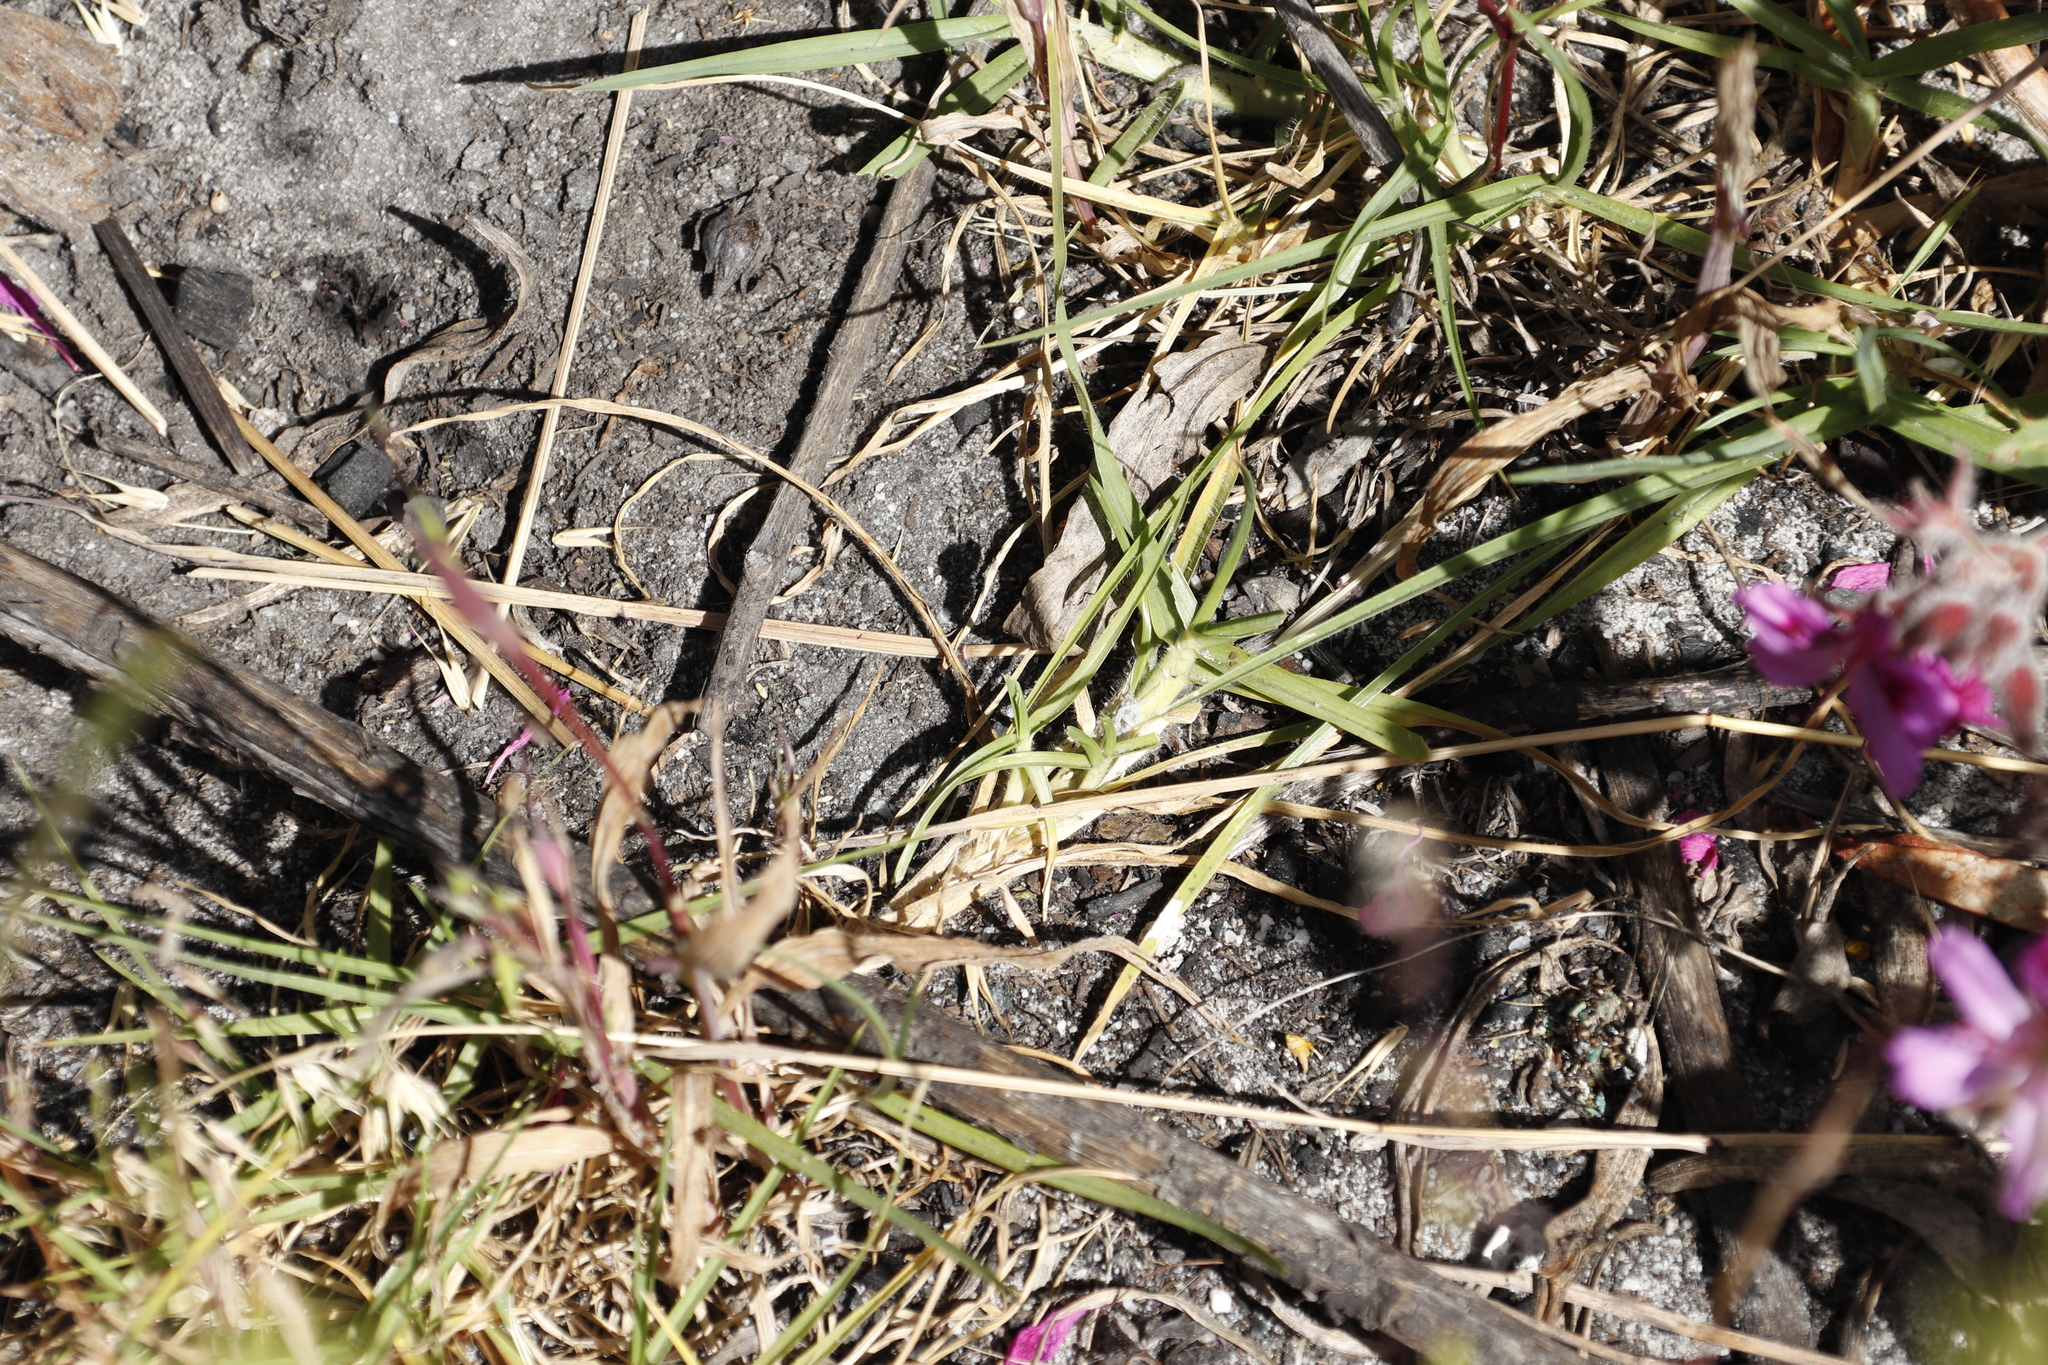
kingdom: Plantae
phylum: Tracheophyta
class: Liliopsida
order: Poales
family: Poaceae
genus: Cenchrus
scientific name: Cenchrus clandestinus
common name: Kikuyugrass
